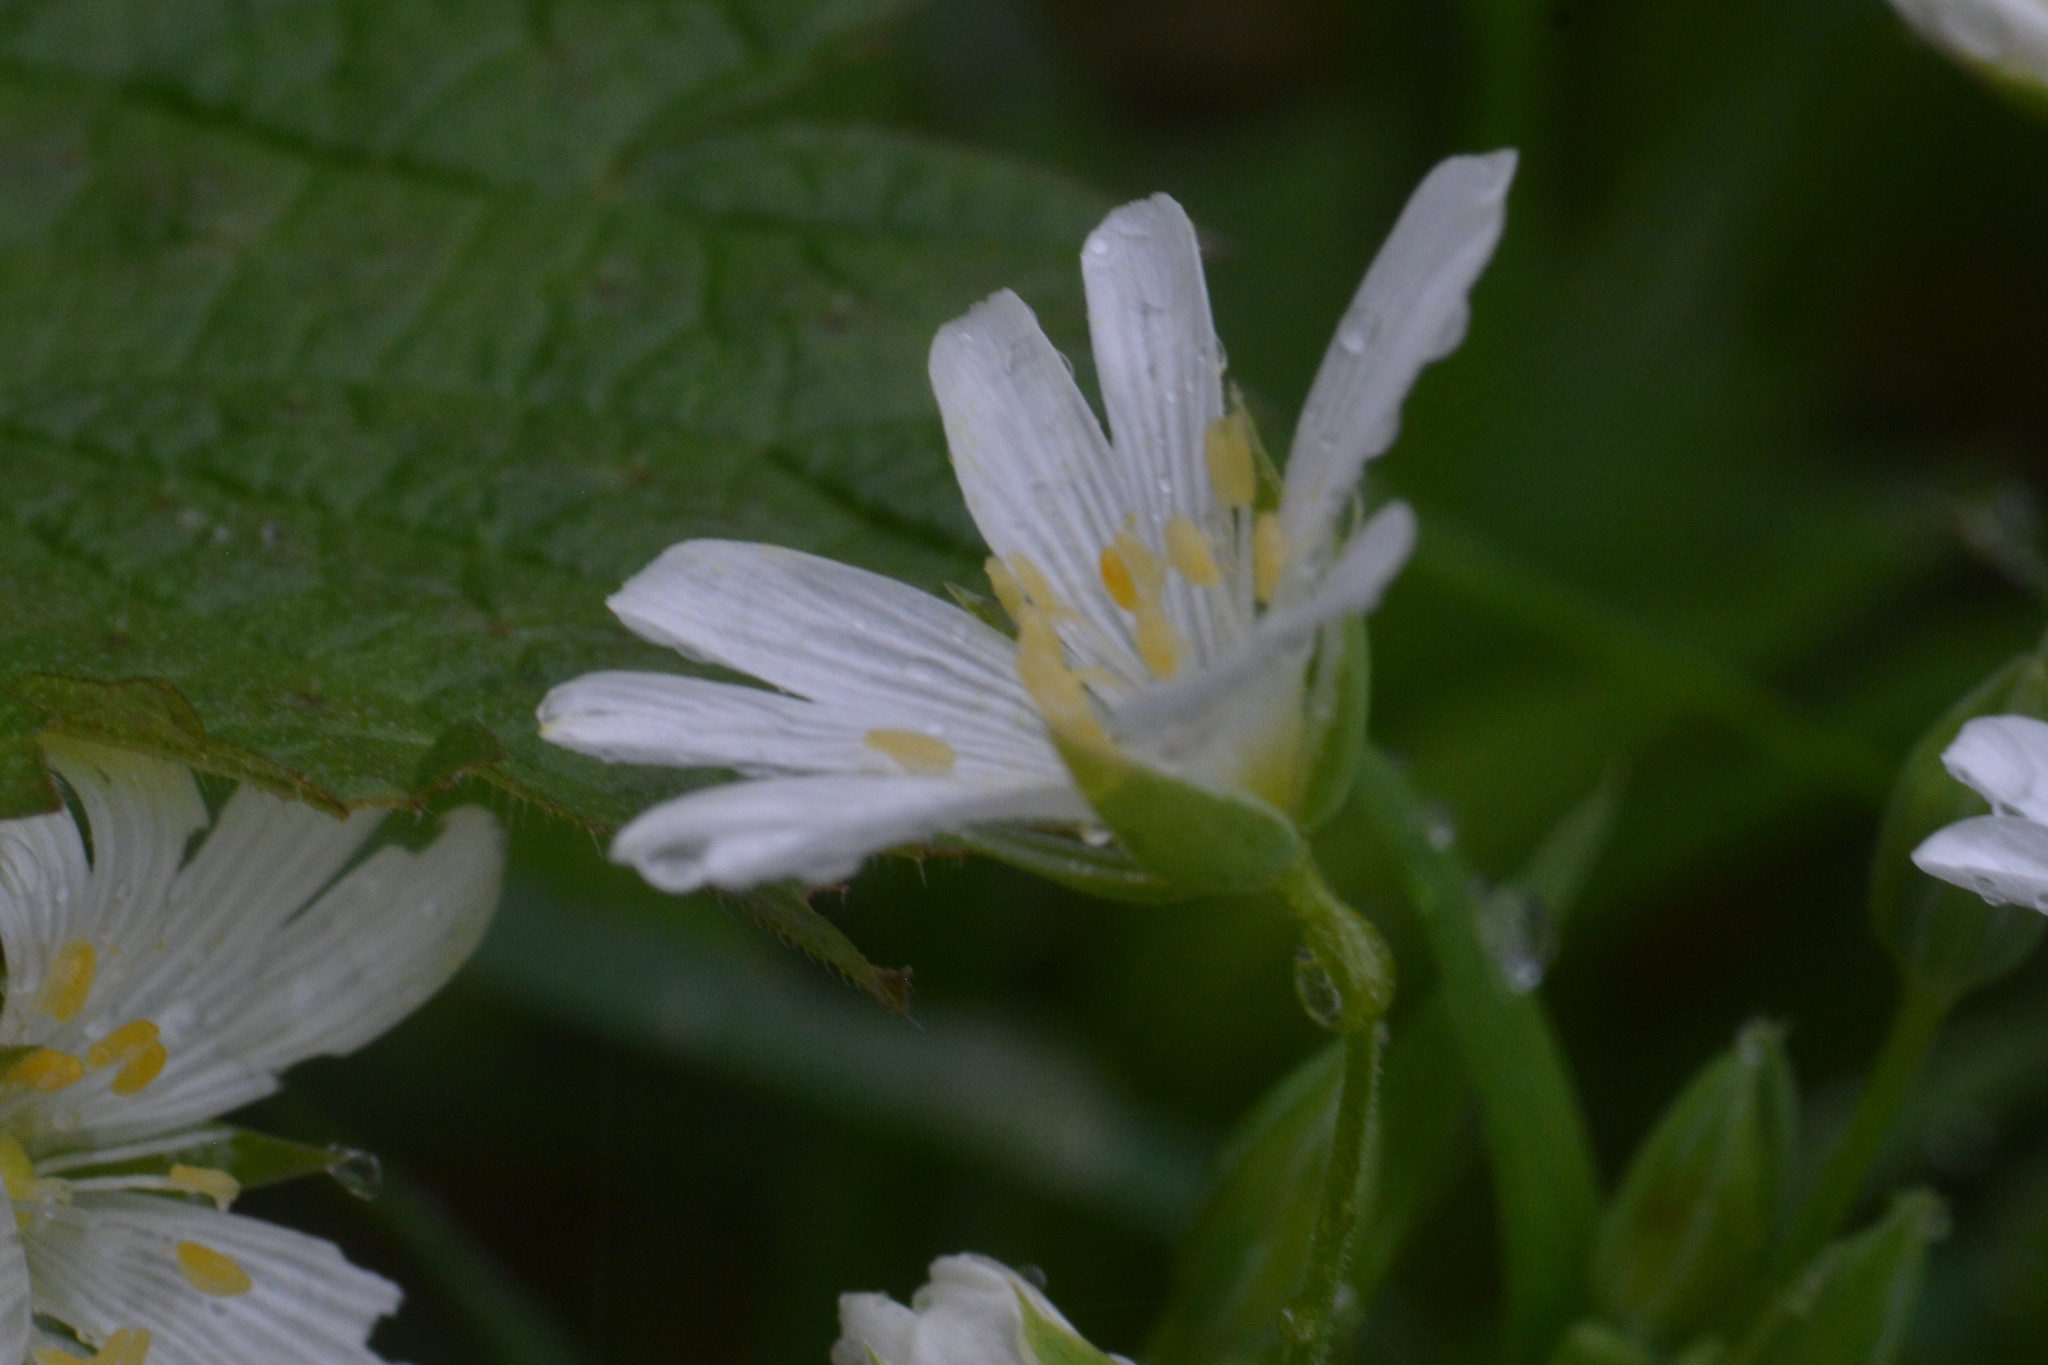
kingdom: Plantae
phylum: Tracheophyta
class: Magnoliopsida
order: Caryophyllales
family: Caryophyllaceae
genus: Rabelera
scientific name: Rabelera holostea
